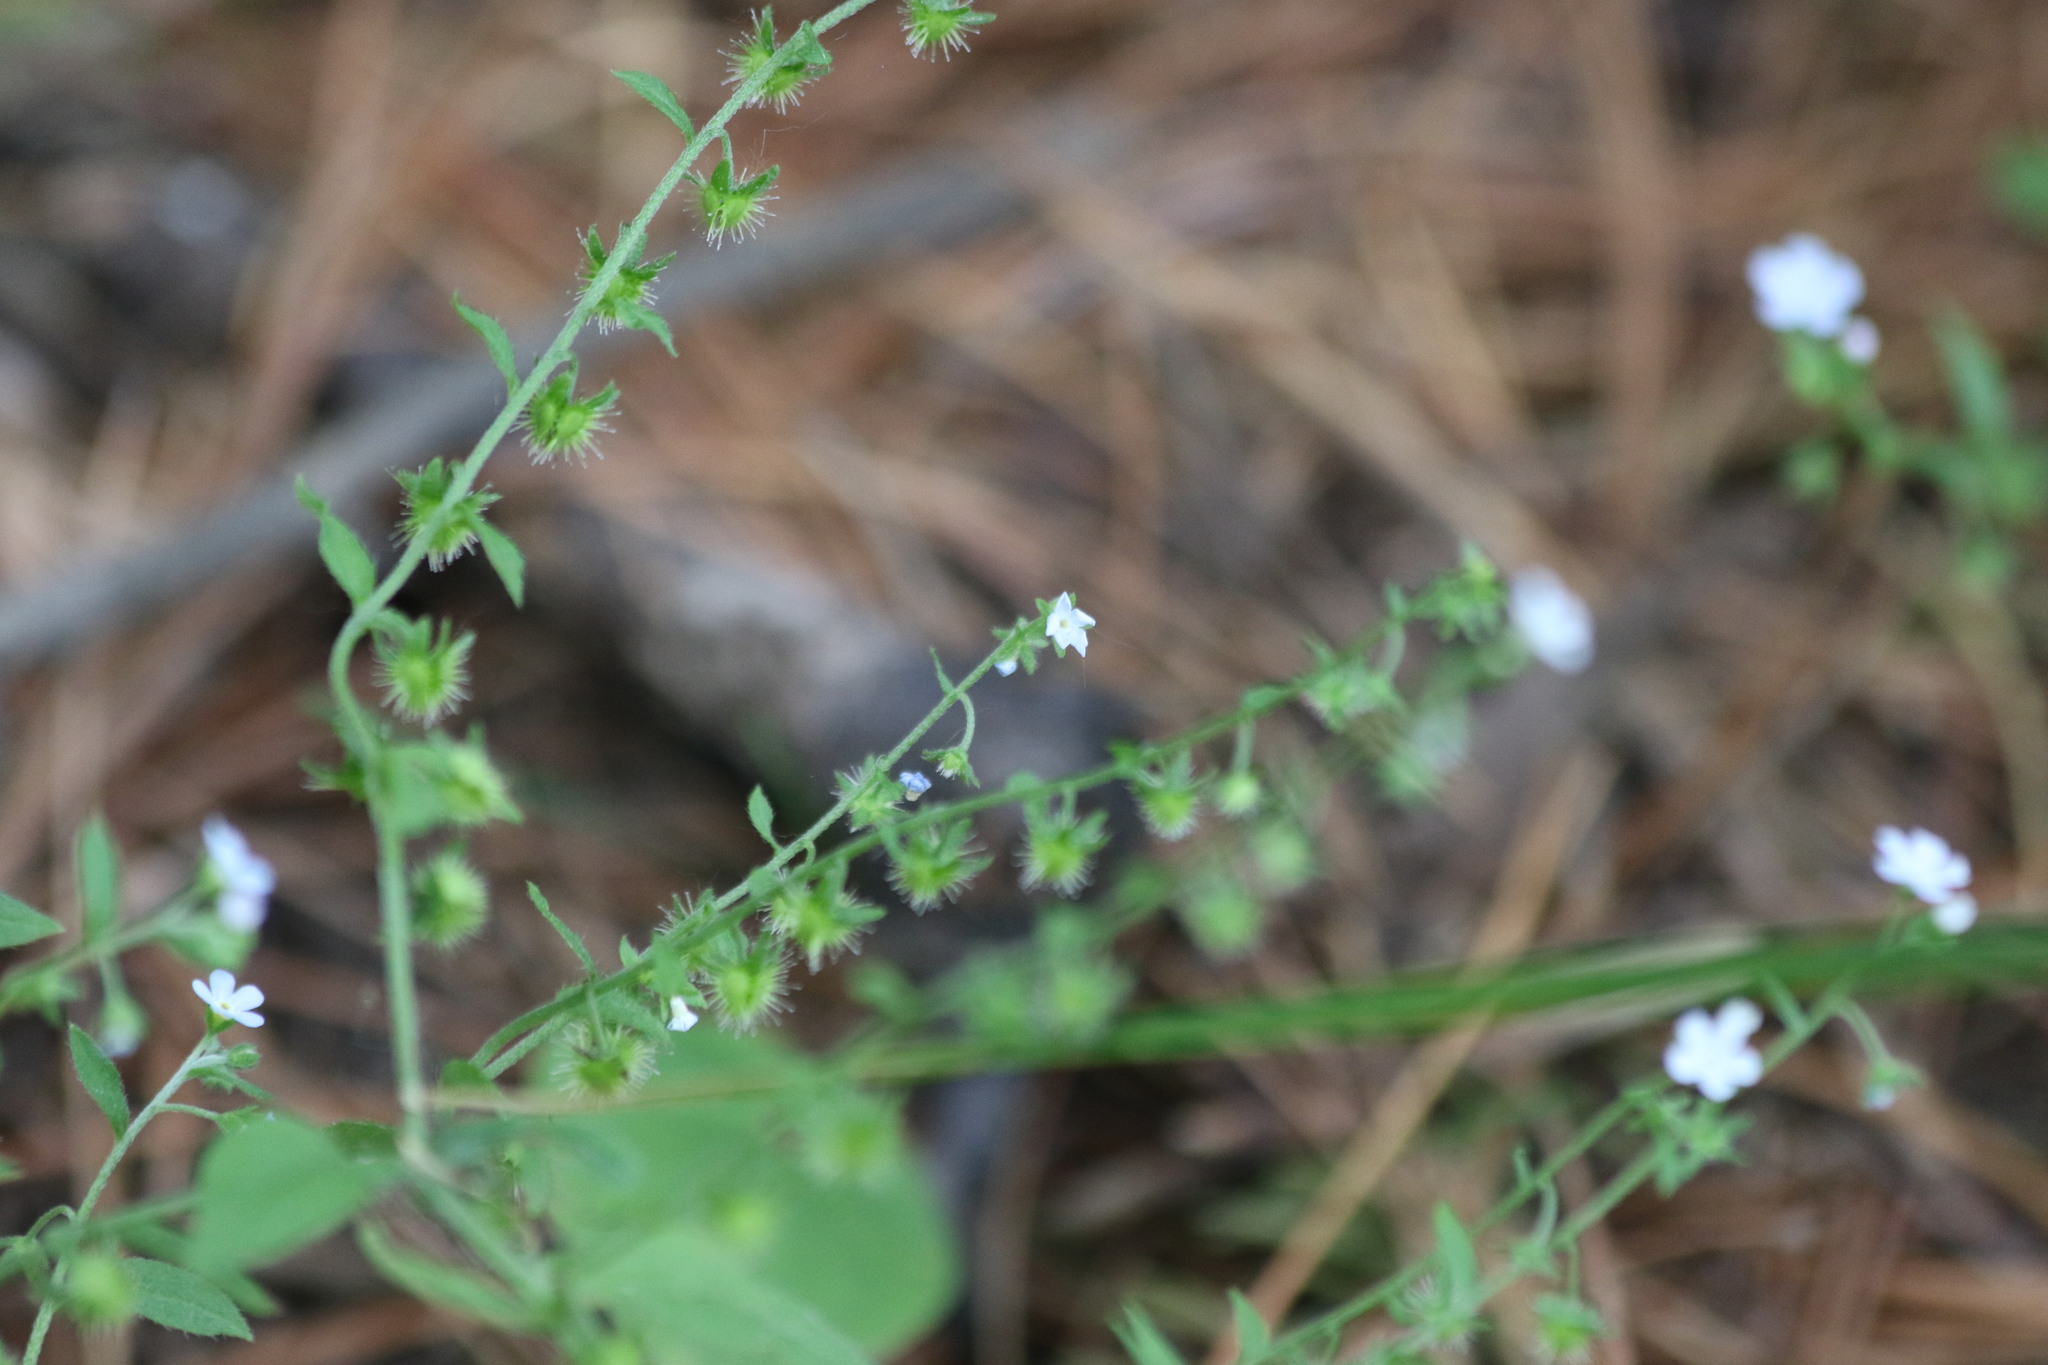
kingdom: Plantae
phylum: Tracheophyta
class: Magnoliopsida
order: Boraginales
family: Boraginaceae
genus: Hackelia
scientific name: Hackelia deflexa
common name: Nodding stickseed
